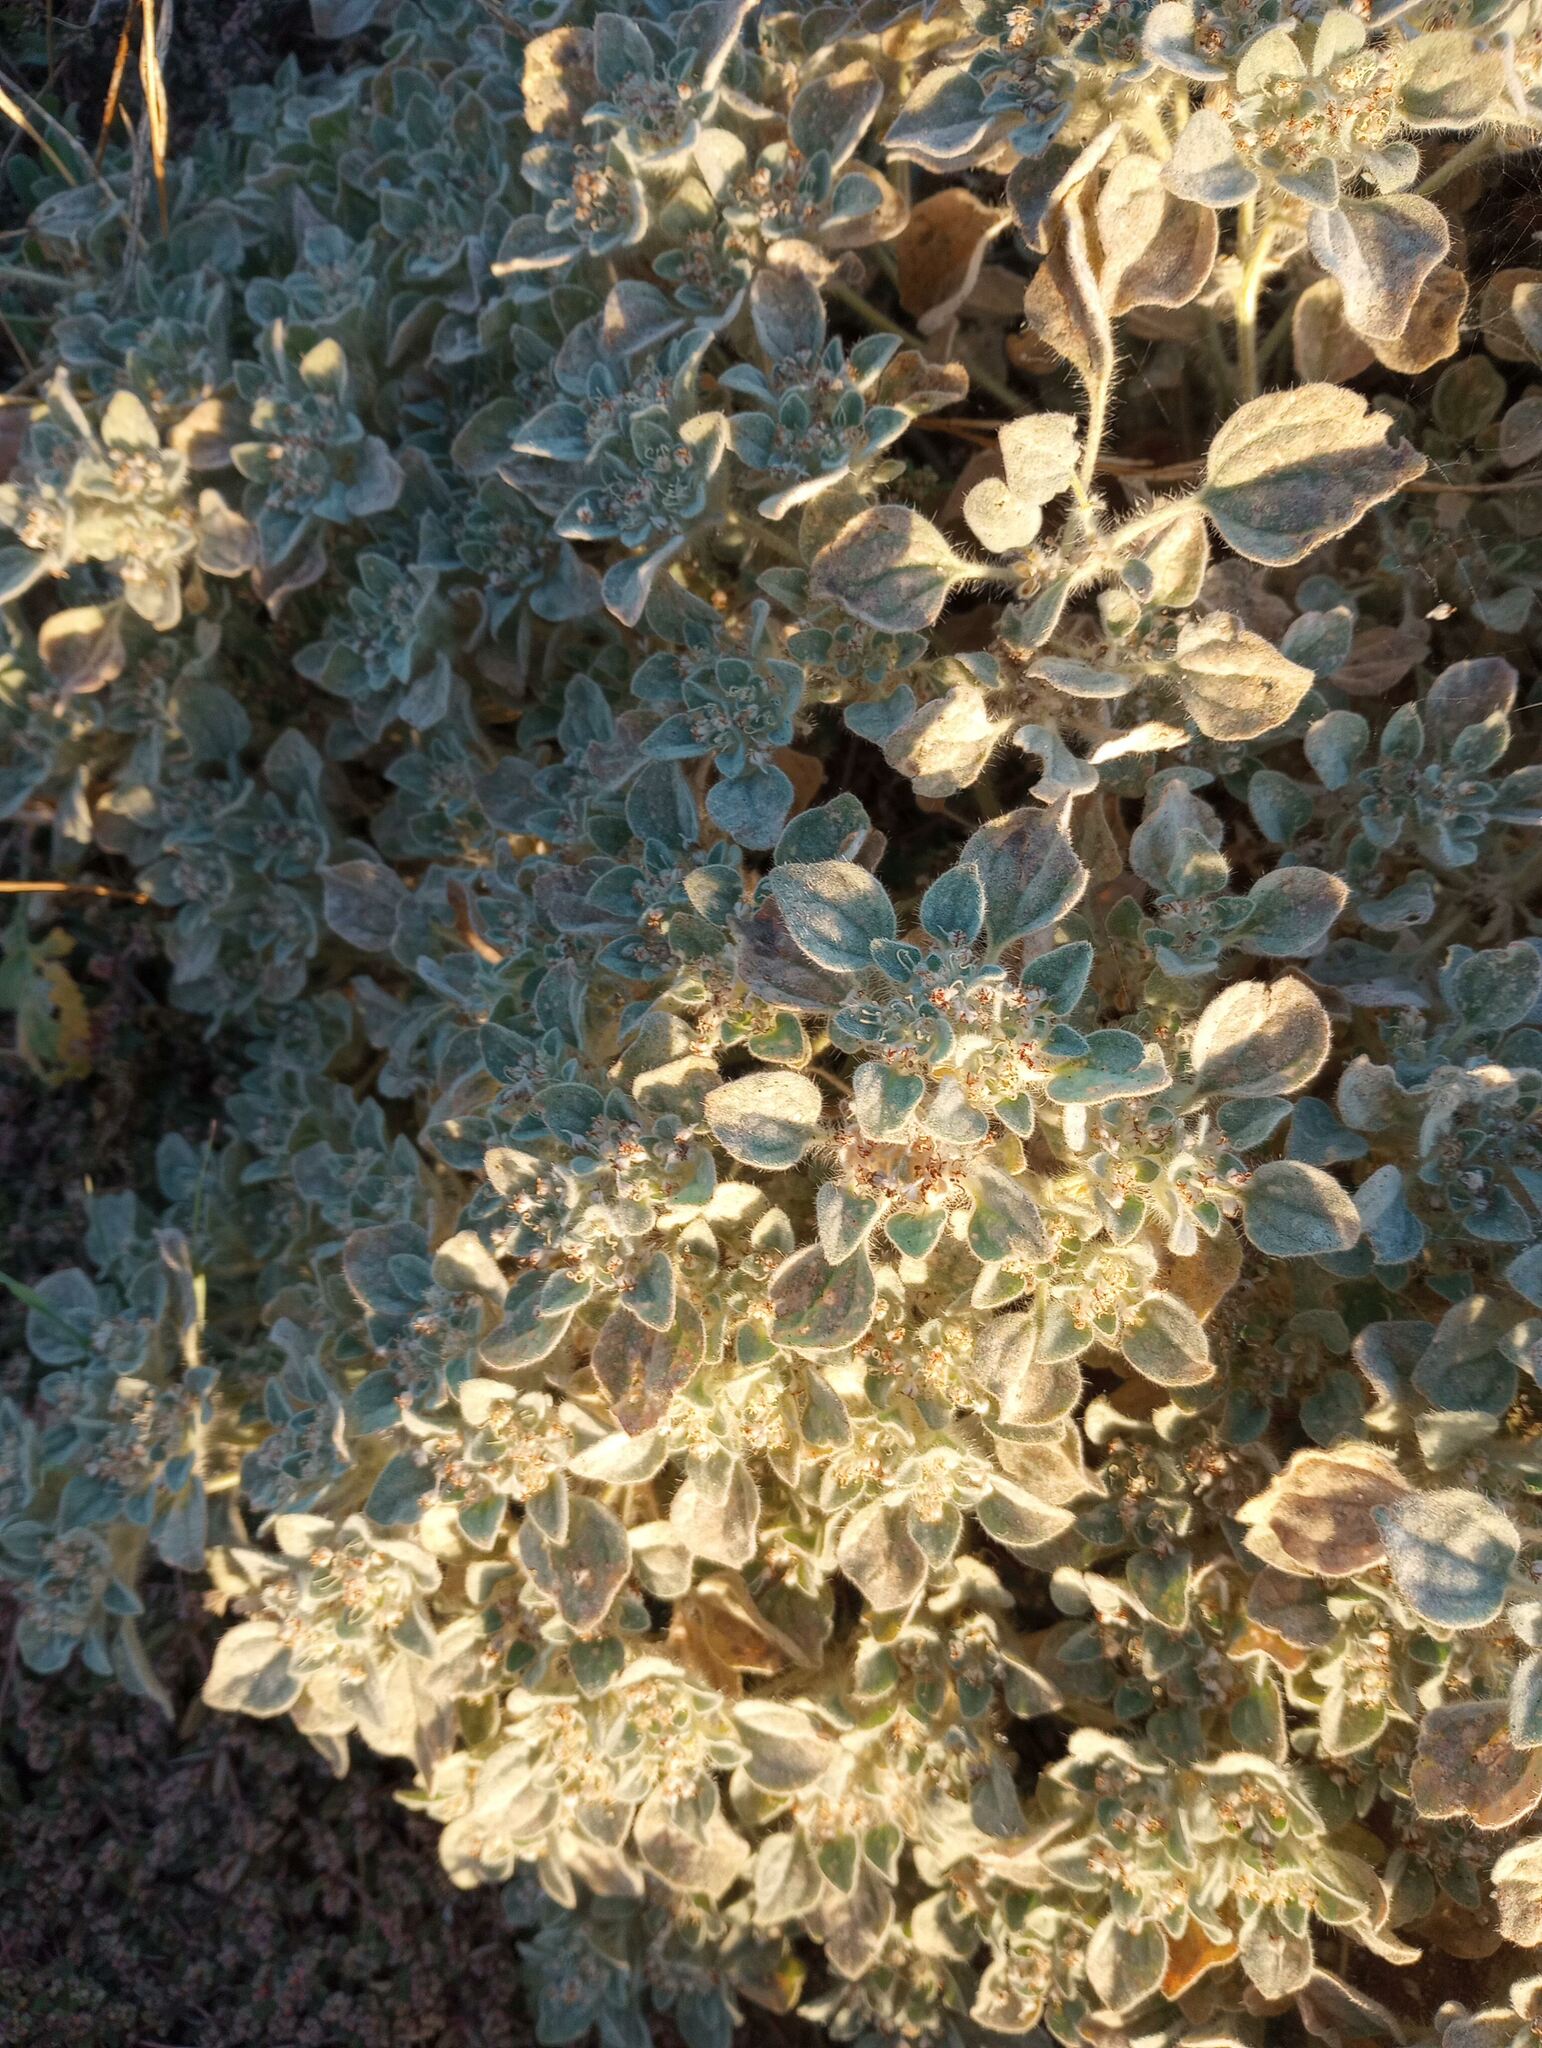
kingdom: Plantae
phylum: Tracheophyta
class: Magnoliopsida
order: Malpighiales
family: Euphorbiaceae
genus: Croton
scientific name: Croton setiger
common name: Dove weed
